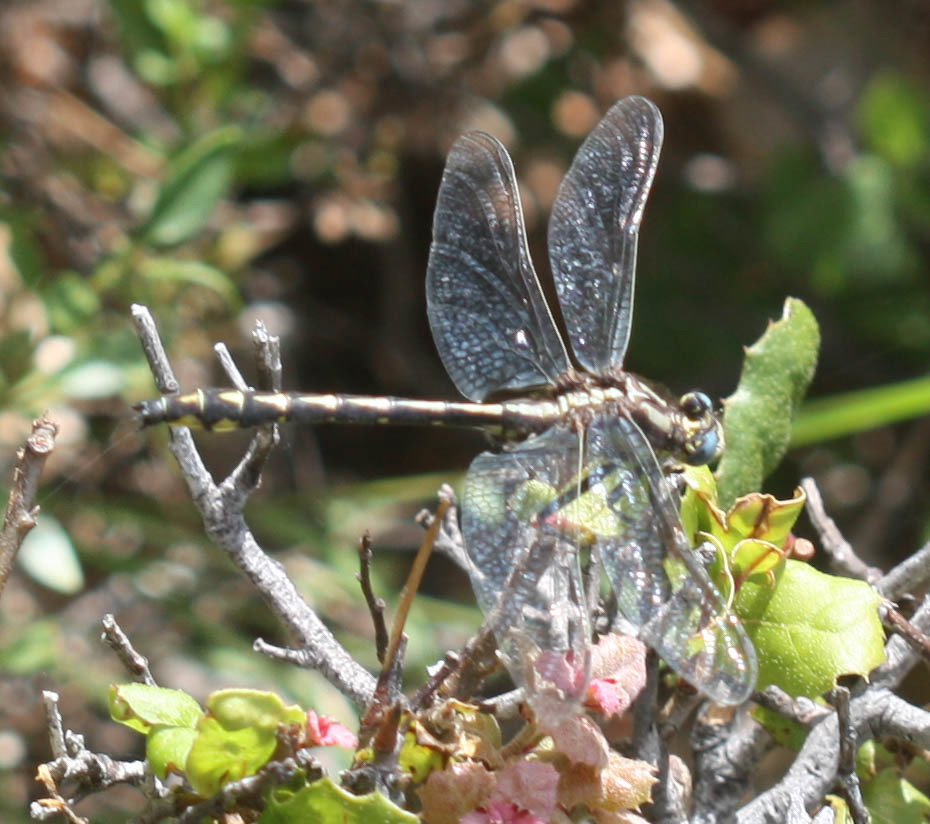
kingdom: Animalia
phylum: Arthropoda
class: Insecta
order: Odonata
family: Gomphidae
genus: Phanogomphus
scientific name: Phanogomphus kurilis
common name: Pacific clubtail
